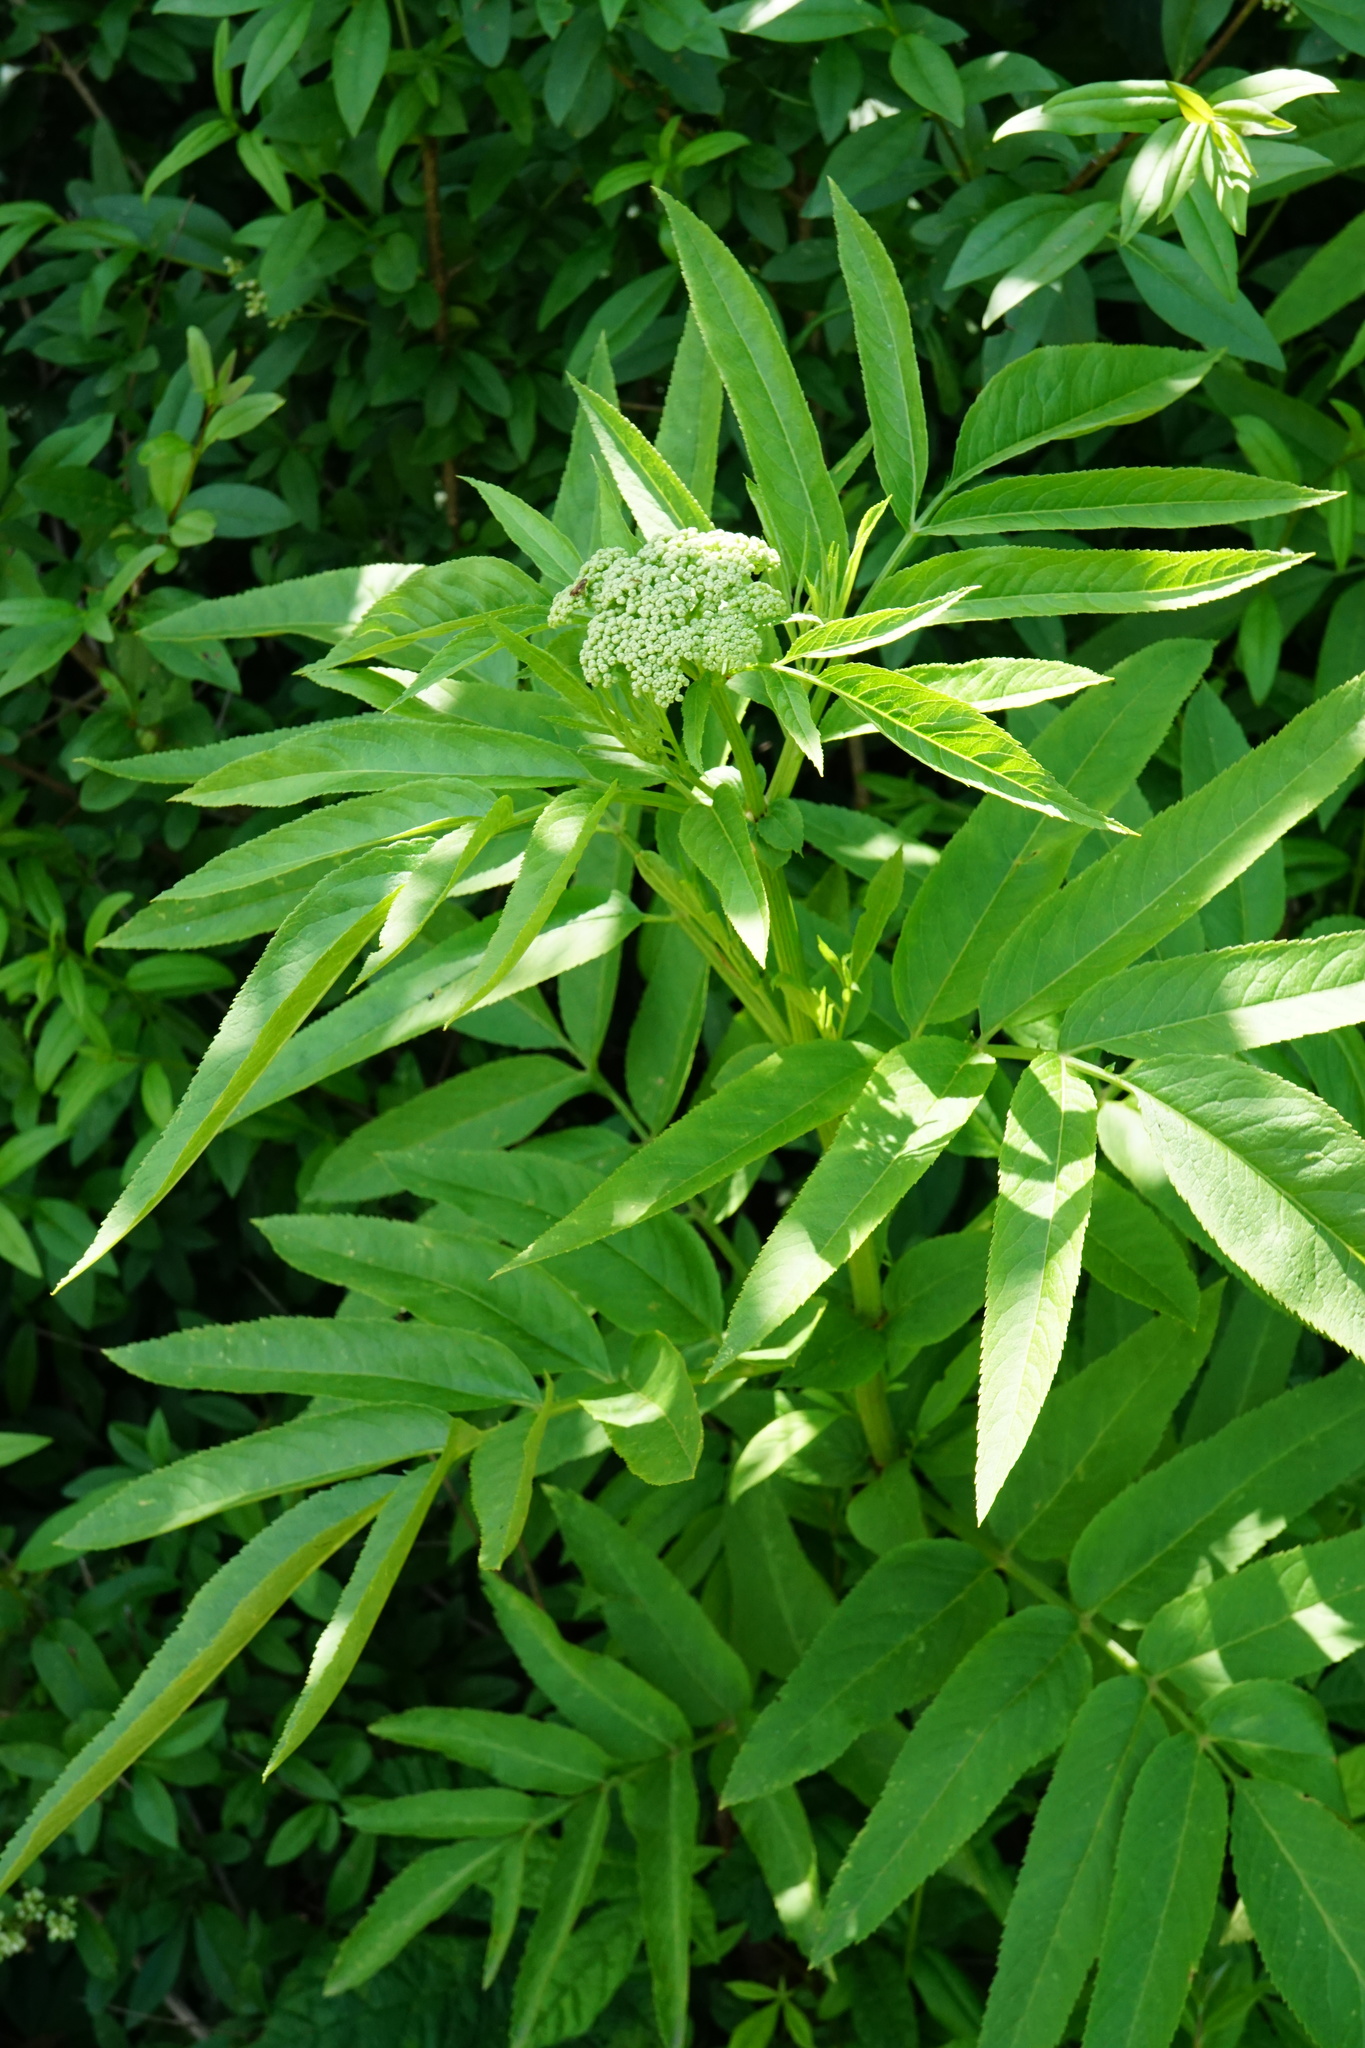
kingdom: Plantae
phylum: Tracheophyta
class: Magnoliopsida
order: Dipsacales
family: Viburnaceae
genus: Sambucus
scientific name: Sambucus ebulus
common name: Dwarf elder
